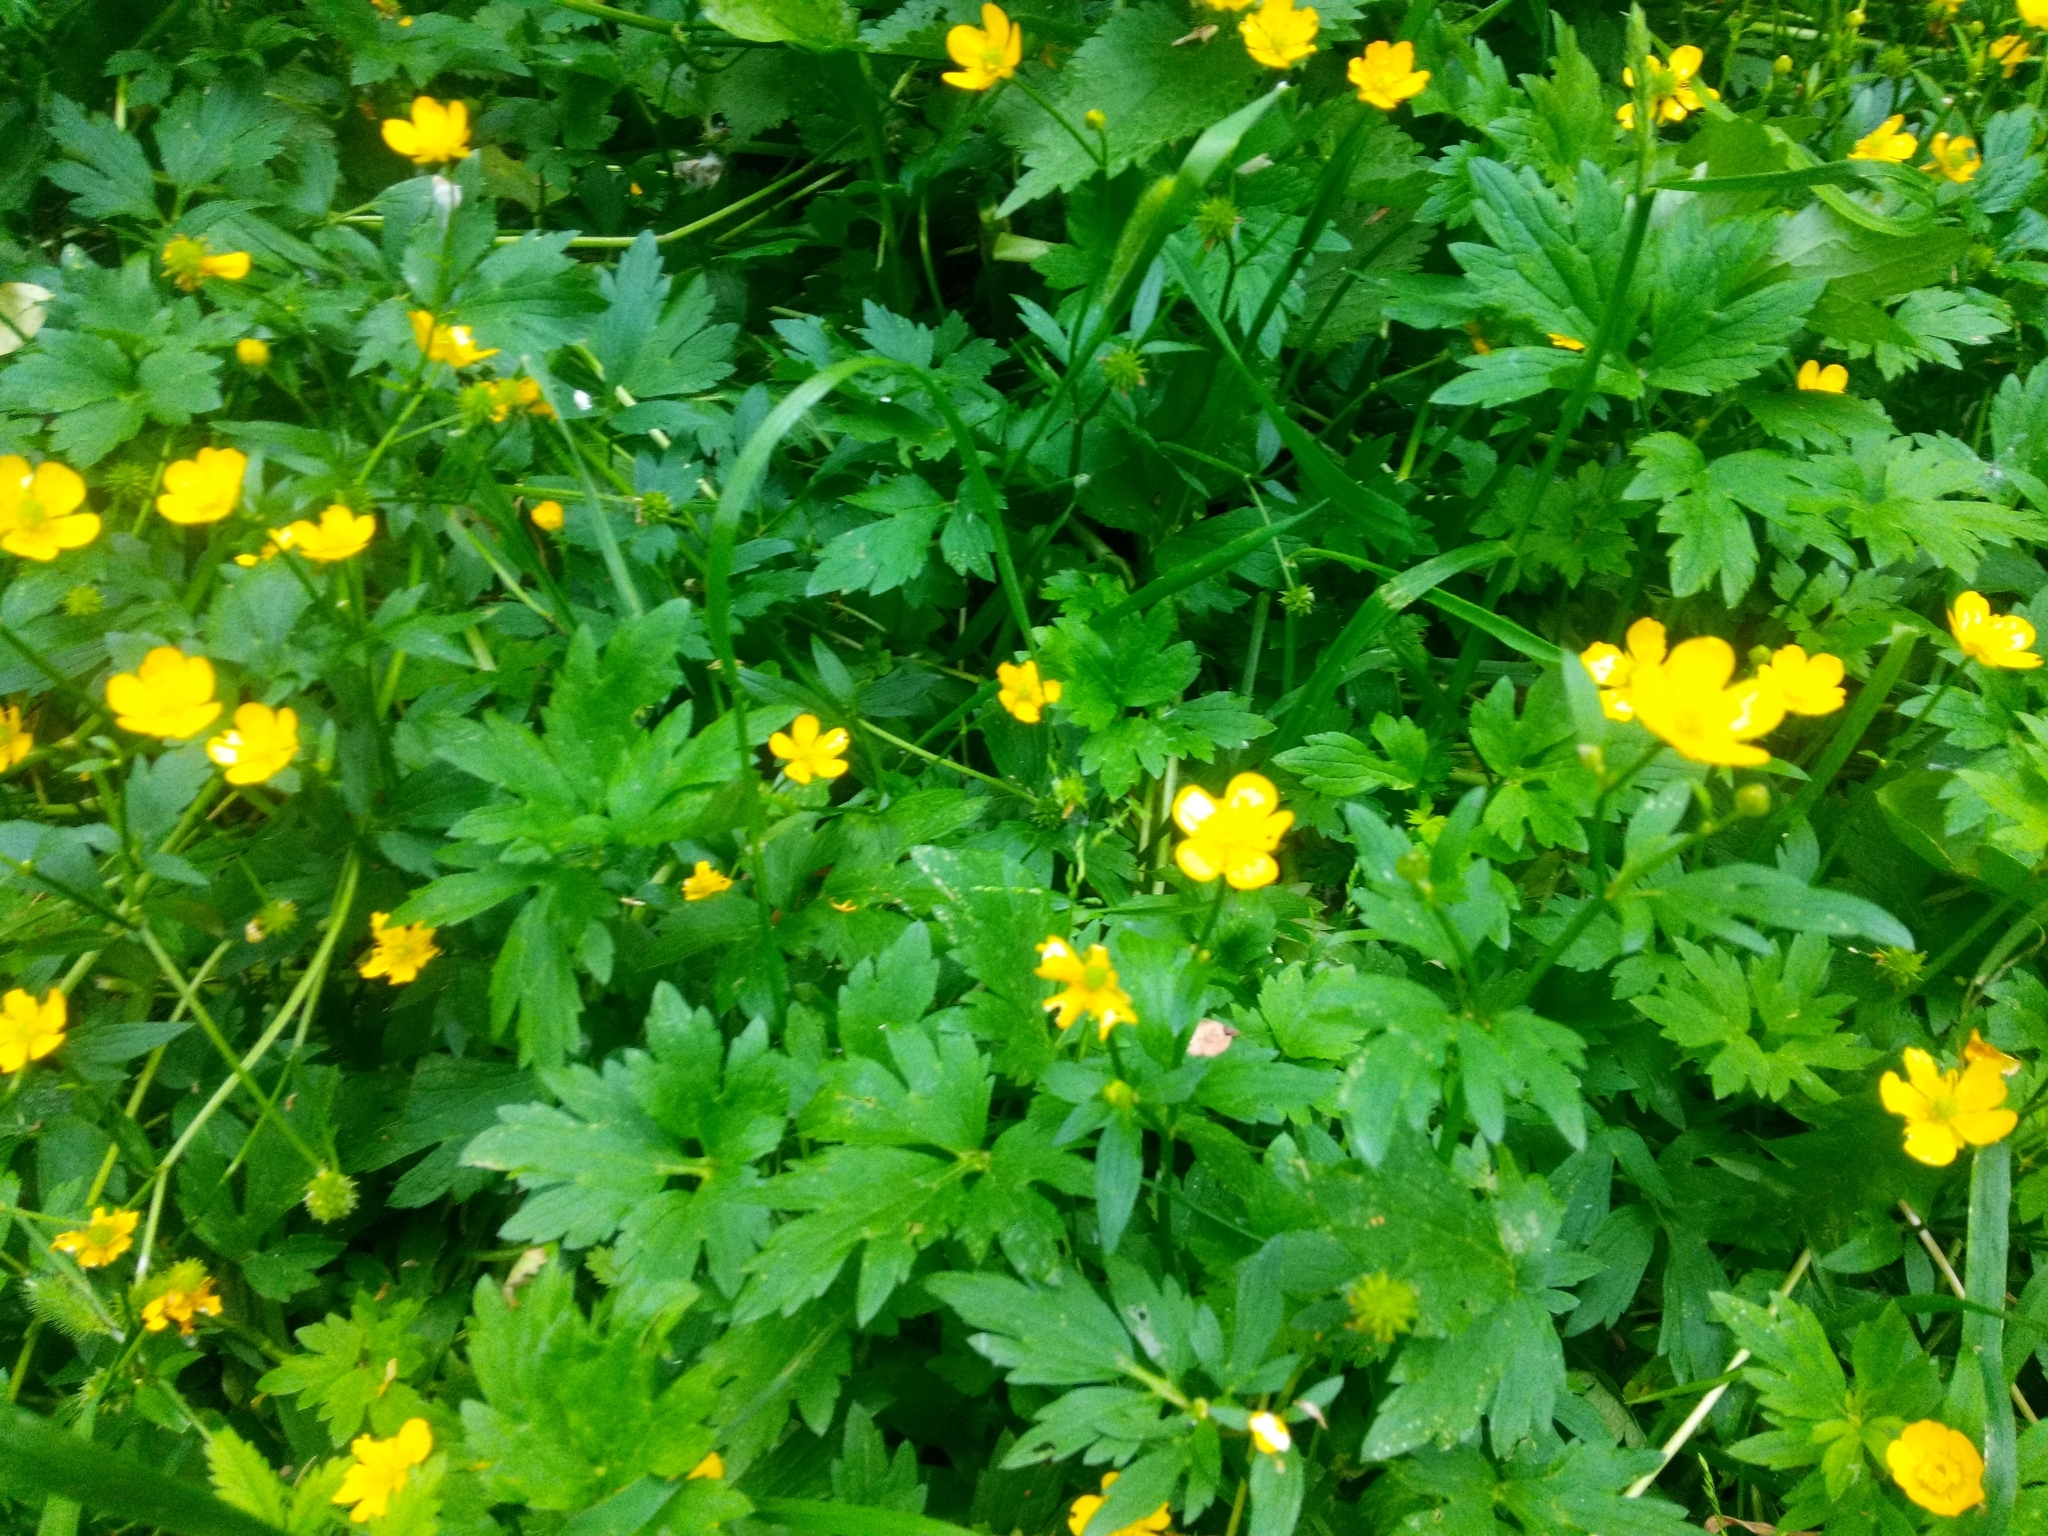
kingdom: Plantae
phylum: Tracheophyta
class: Magnoliopsida
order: Ranunculales
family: Ranunculaceae
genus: Ranunculus
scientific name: Ranunculus repens
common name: Creeping buttercup
